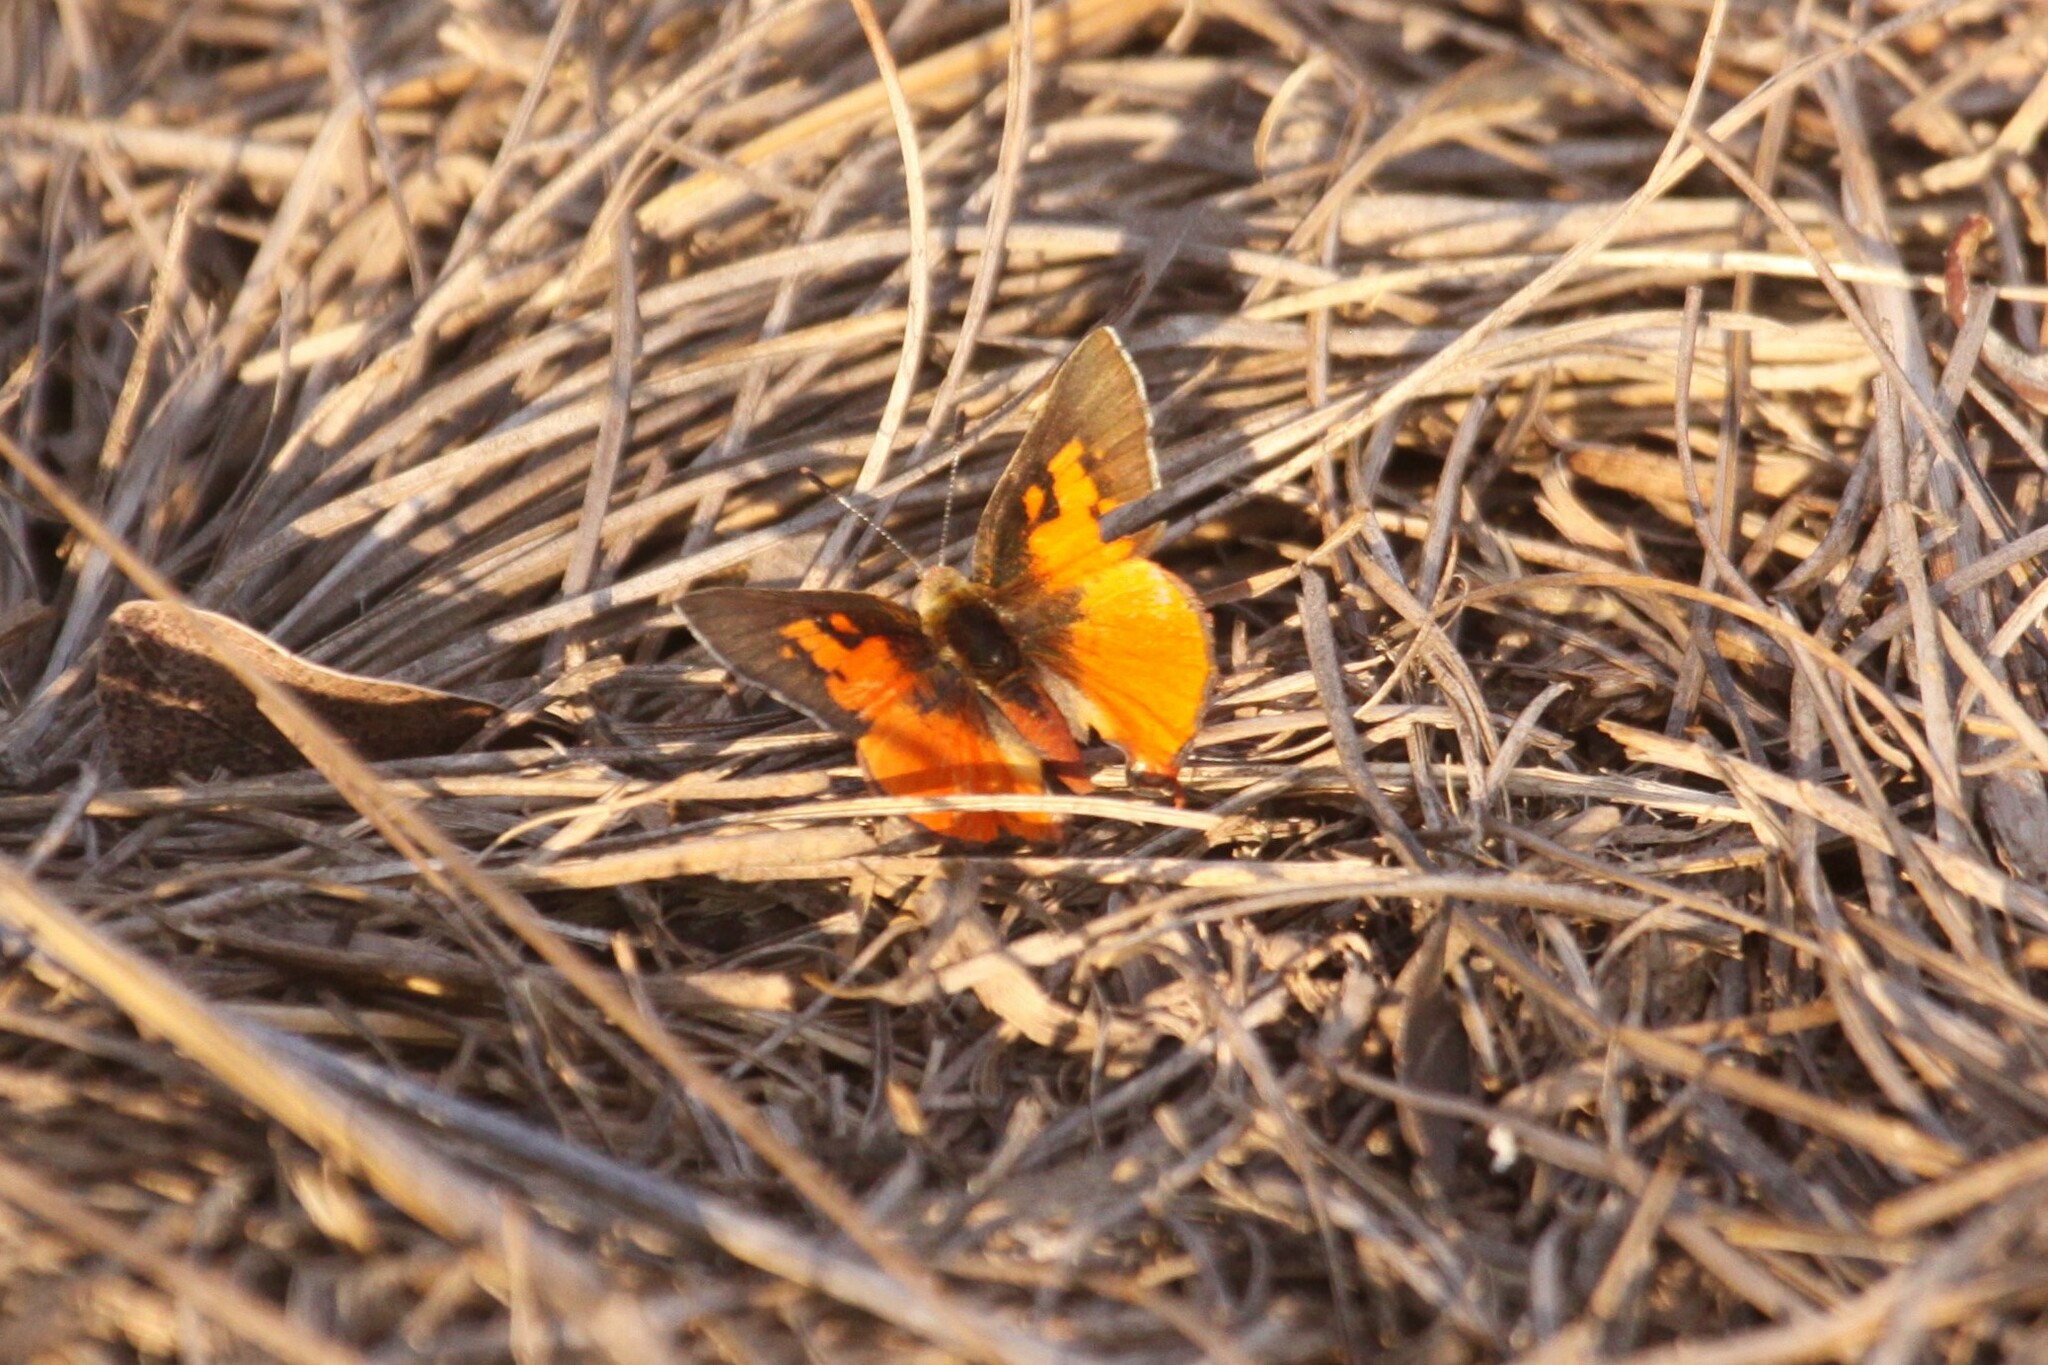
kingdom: Animalia
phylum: Arthropoda
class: Insecta
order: Lepidoptera
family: Lycaenidae
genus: Axiocerses
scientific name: Axiocerses perion
